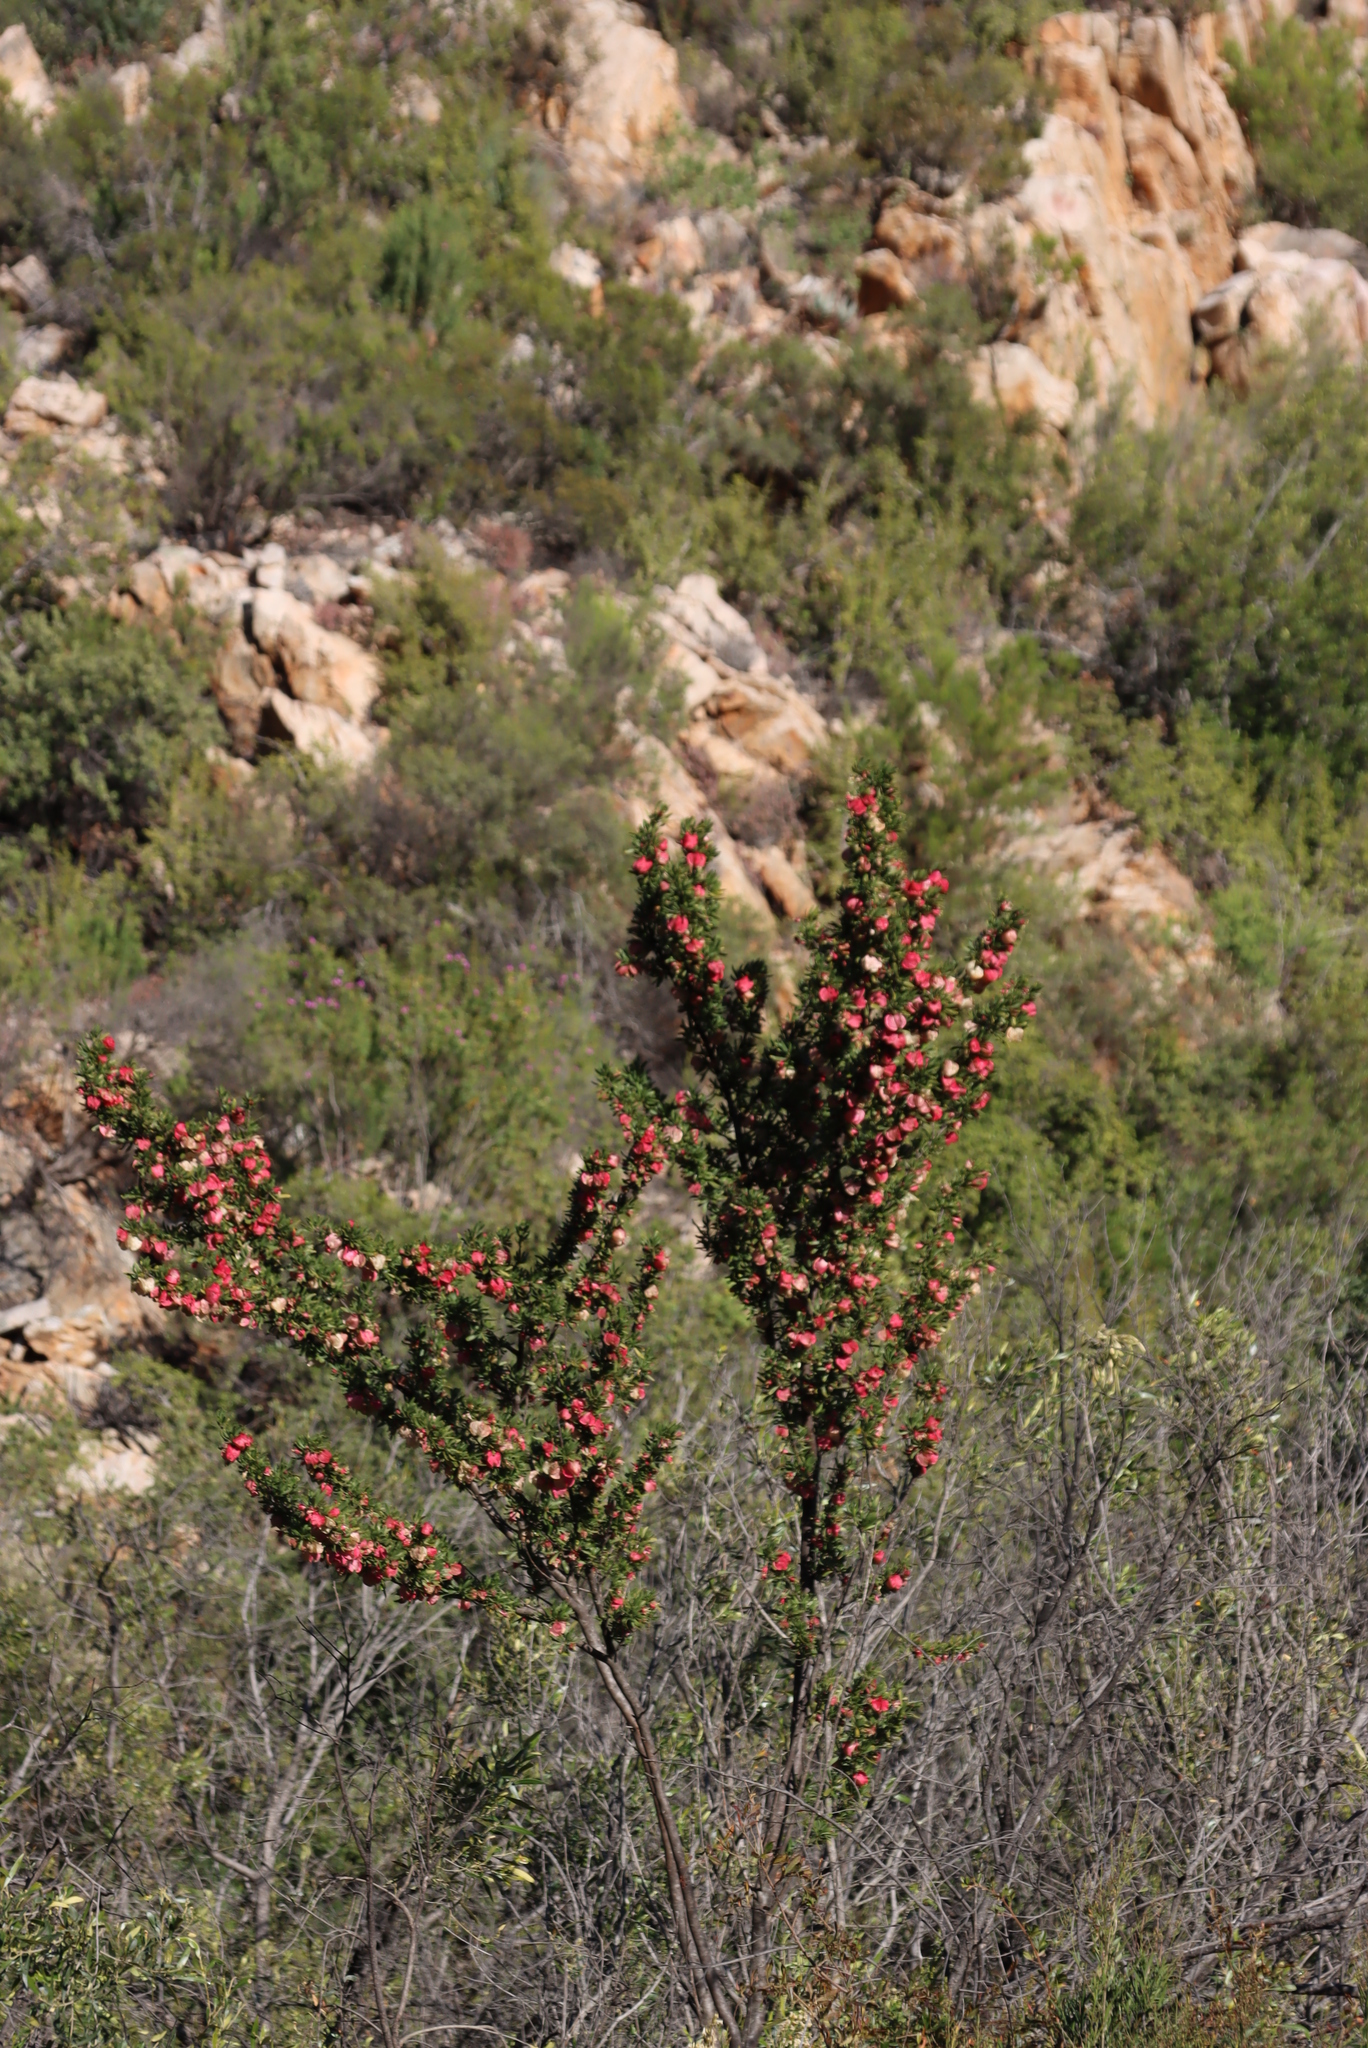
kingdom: Plantae
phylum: Tracheophyta
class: Magnoliopsida
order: Sapindales
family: Meliaceae
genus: Nymania
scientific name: Nymania capensis
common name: Chinese lantern tree
